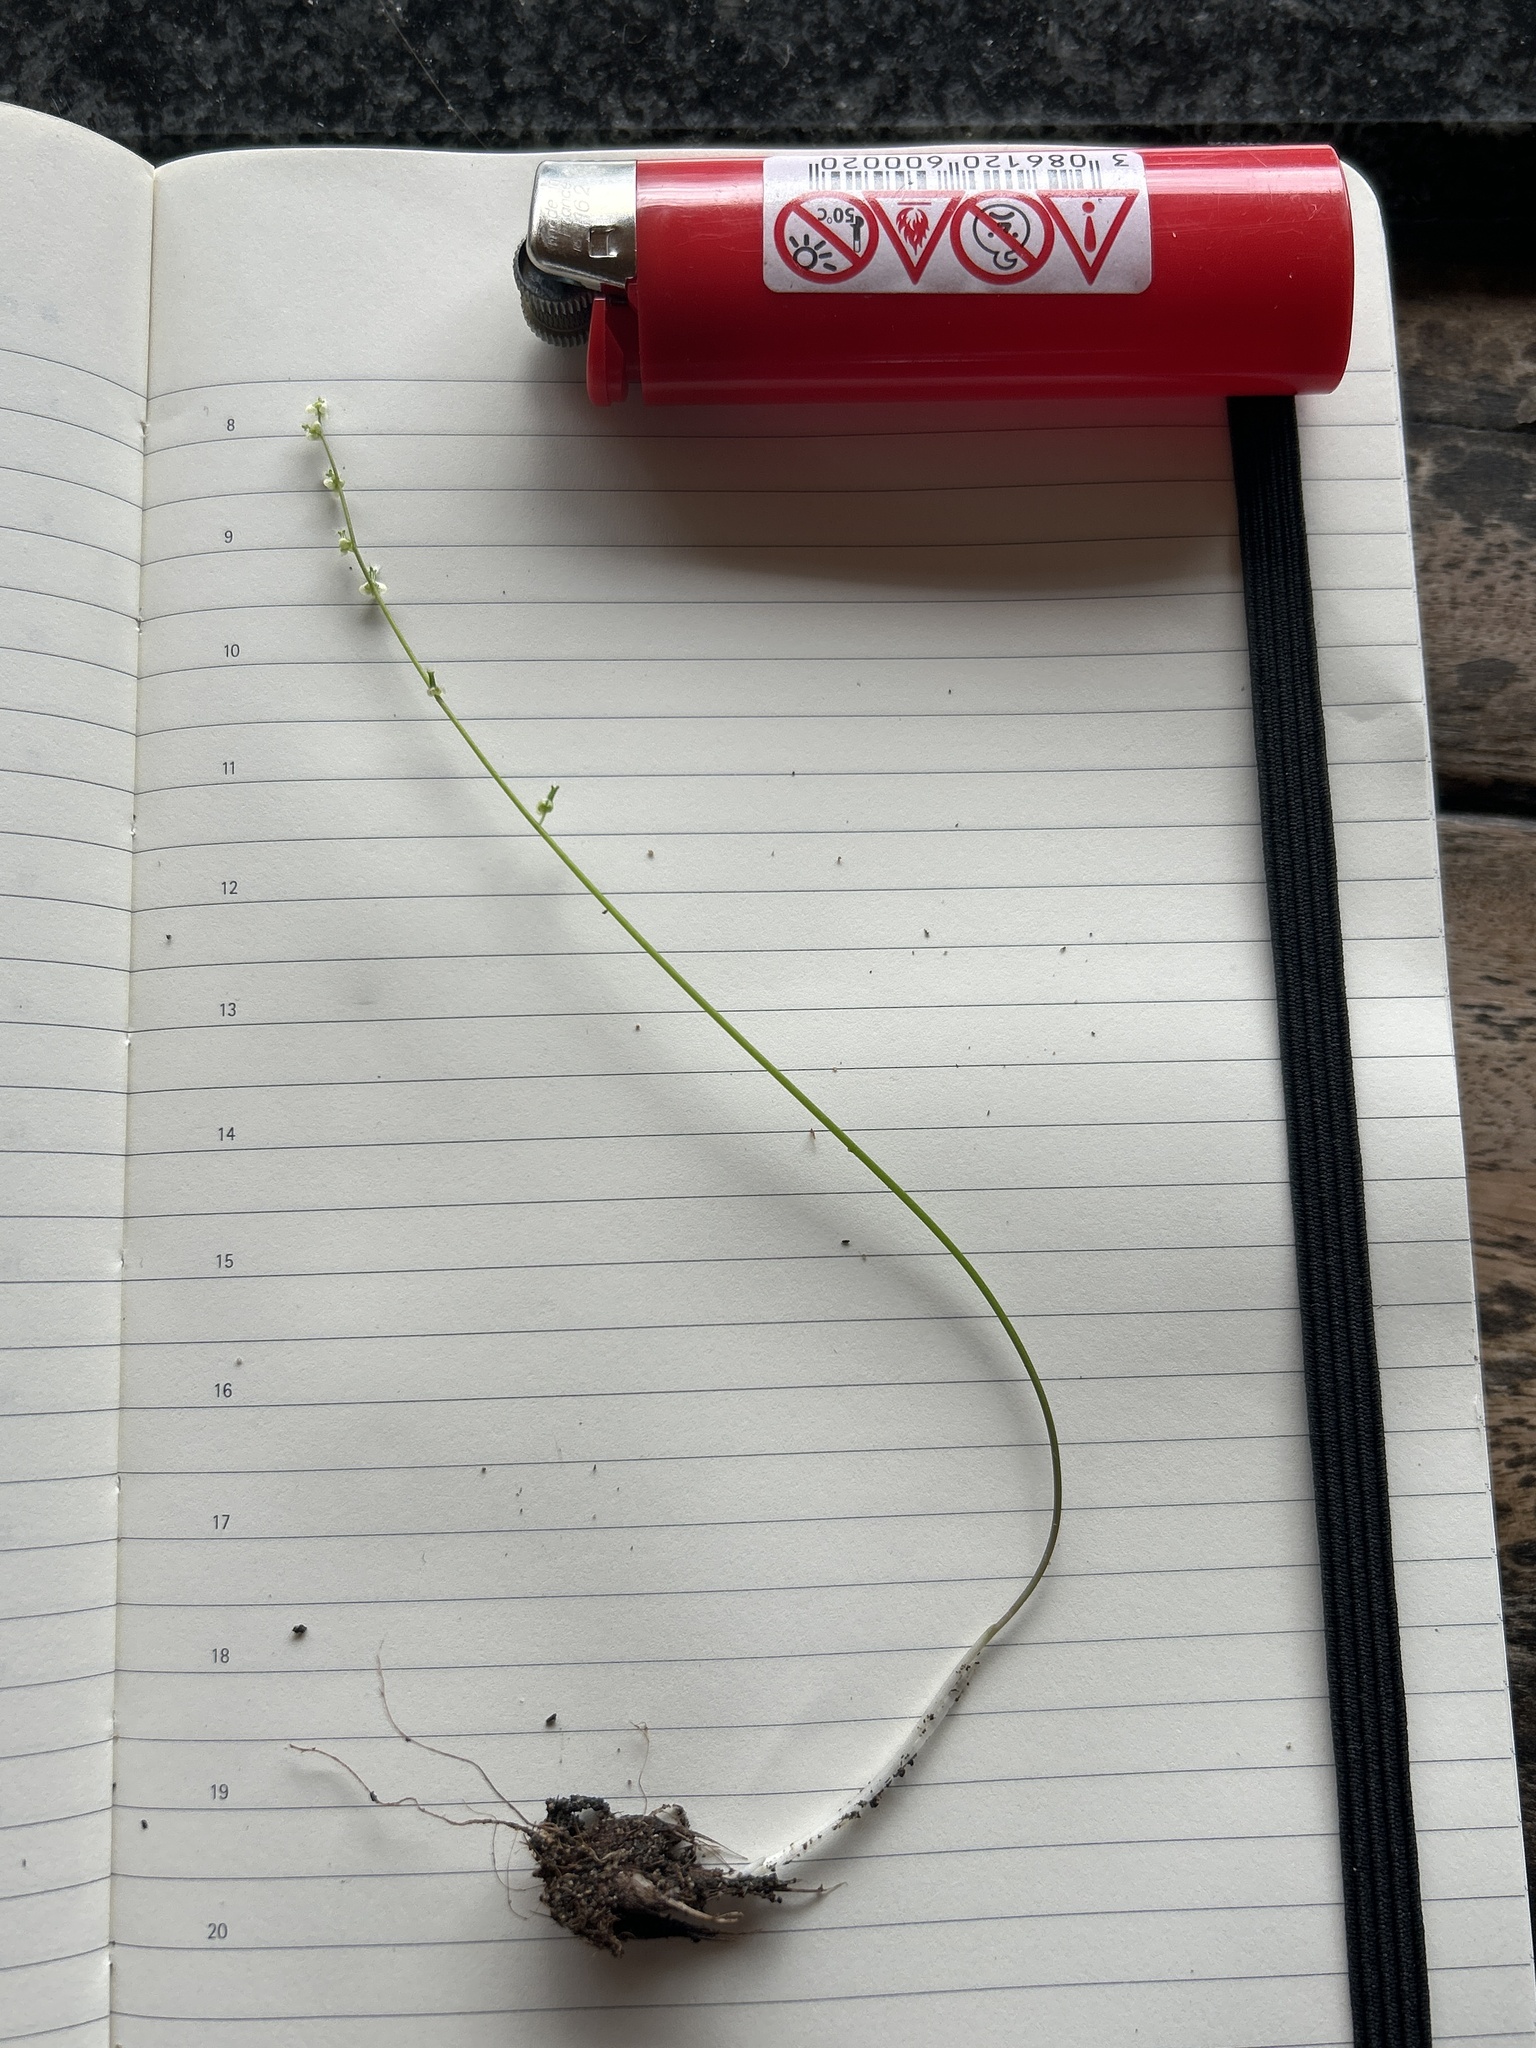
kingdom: Plantae
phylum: Tracheophyta
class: Liliopsida
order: Alismatales
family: Juncaginaceae
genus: Triglochin
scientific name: Triglochin bulbosa
